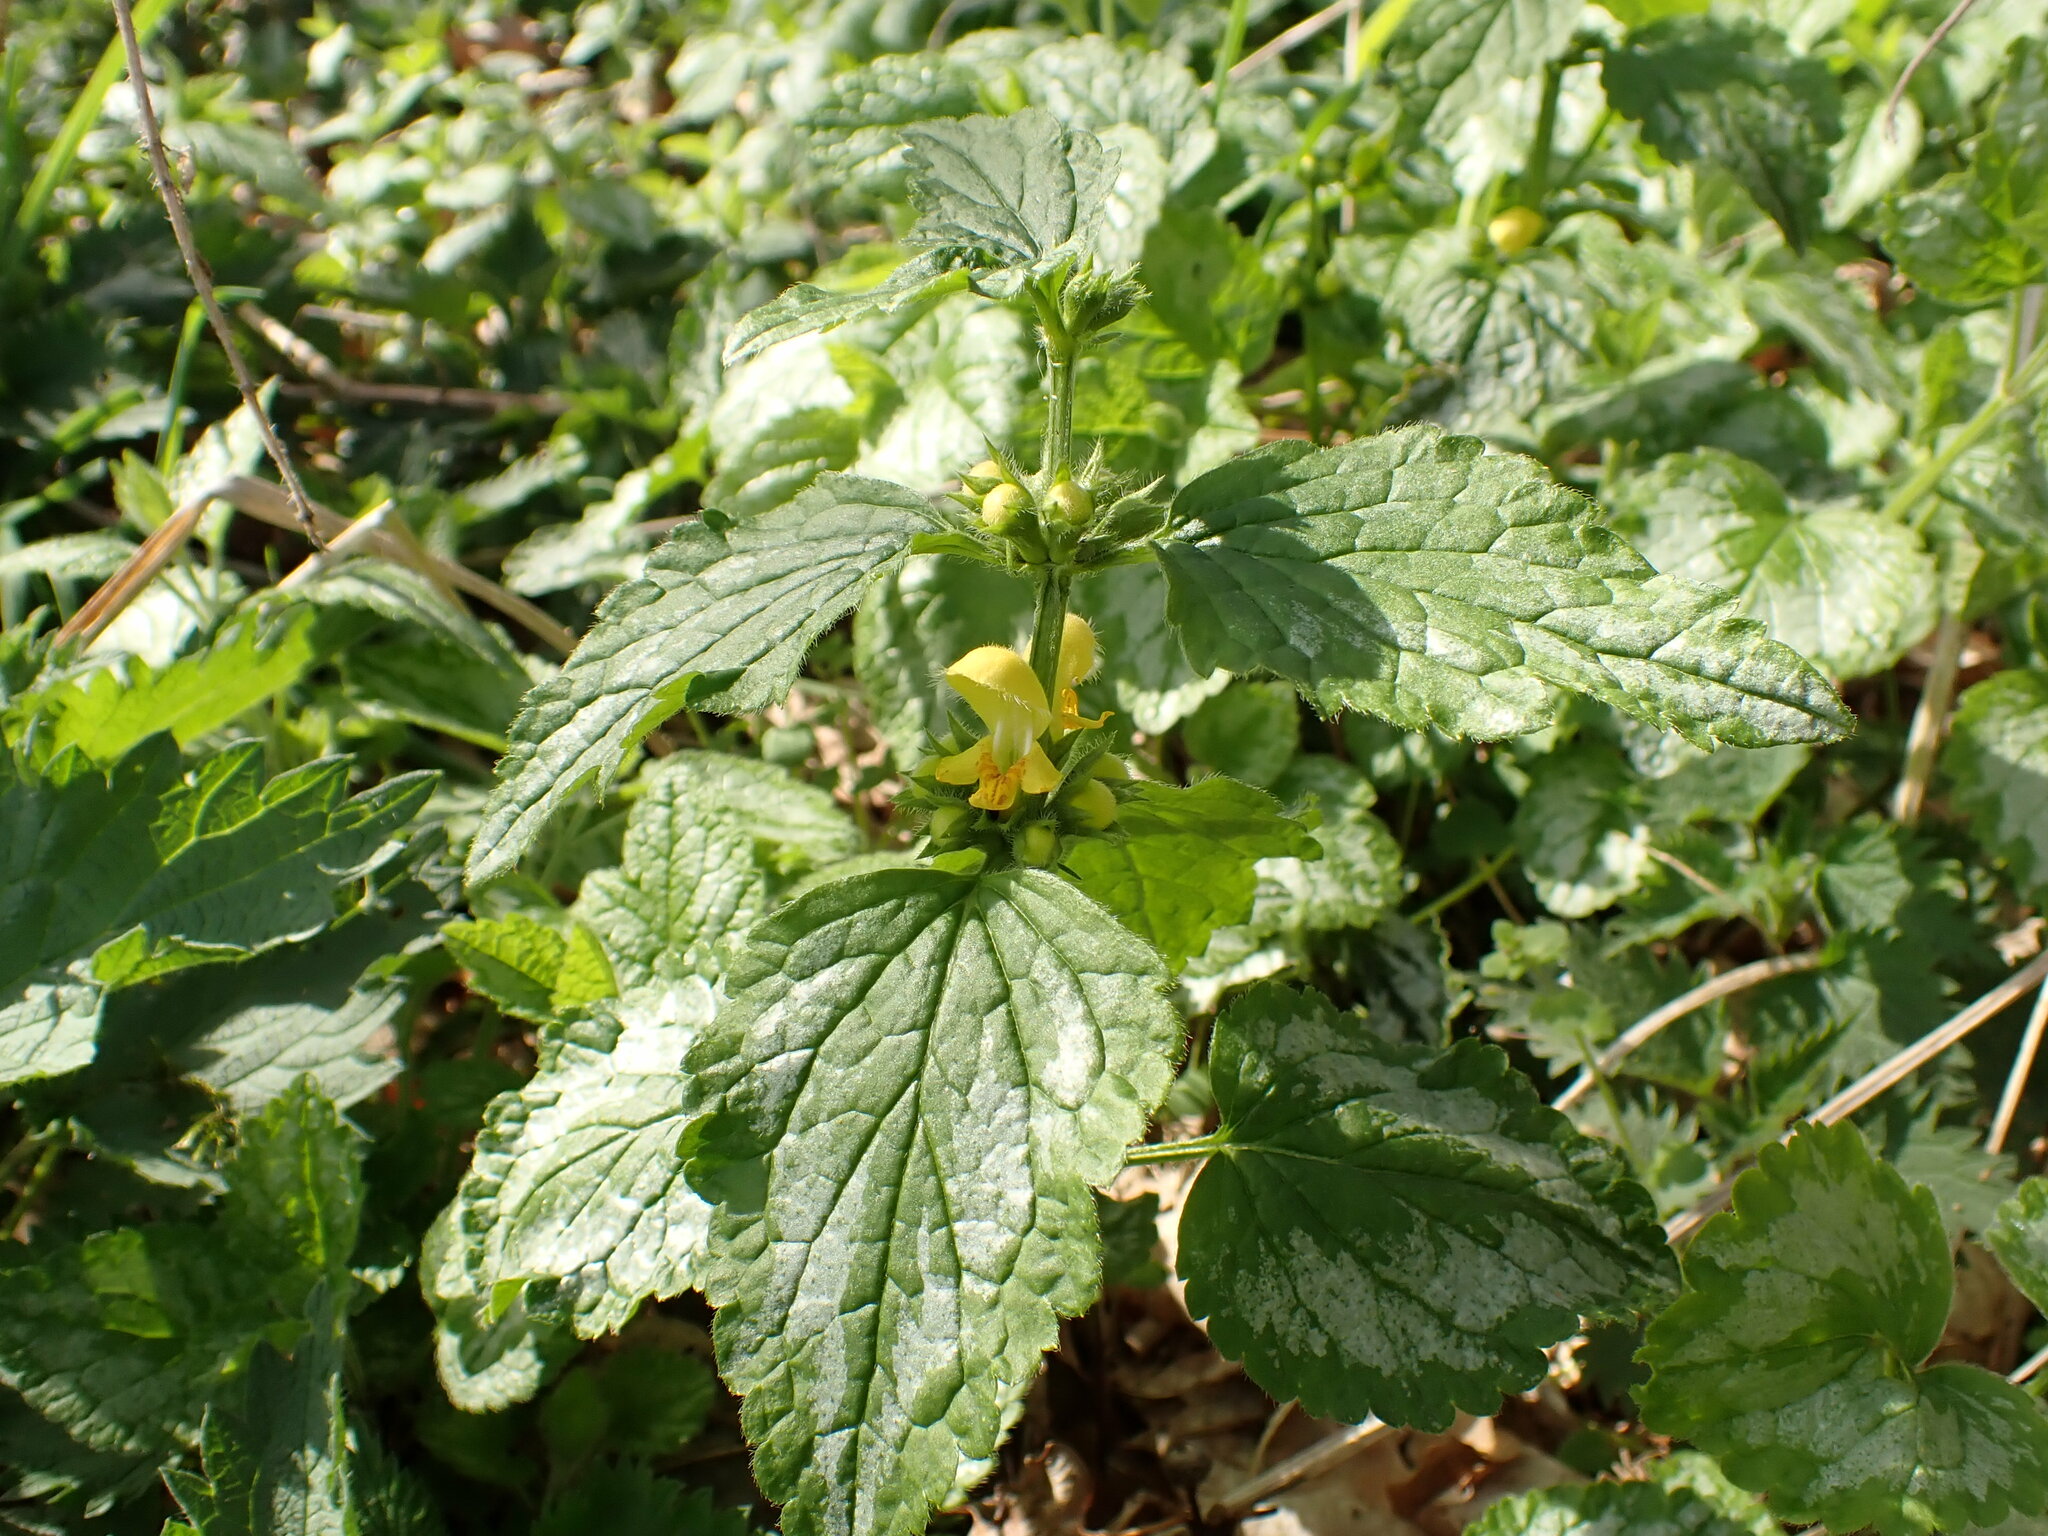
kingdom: Plantae
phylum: Tracheophyta
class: Magnoliopsida
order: Lamiales
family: Lamiaceae
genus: Lamium
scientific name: Lamium galeobdolon
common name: Yellow archangel
